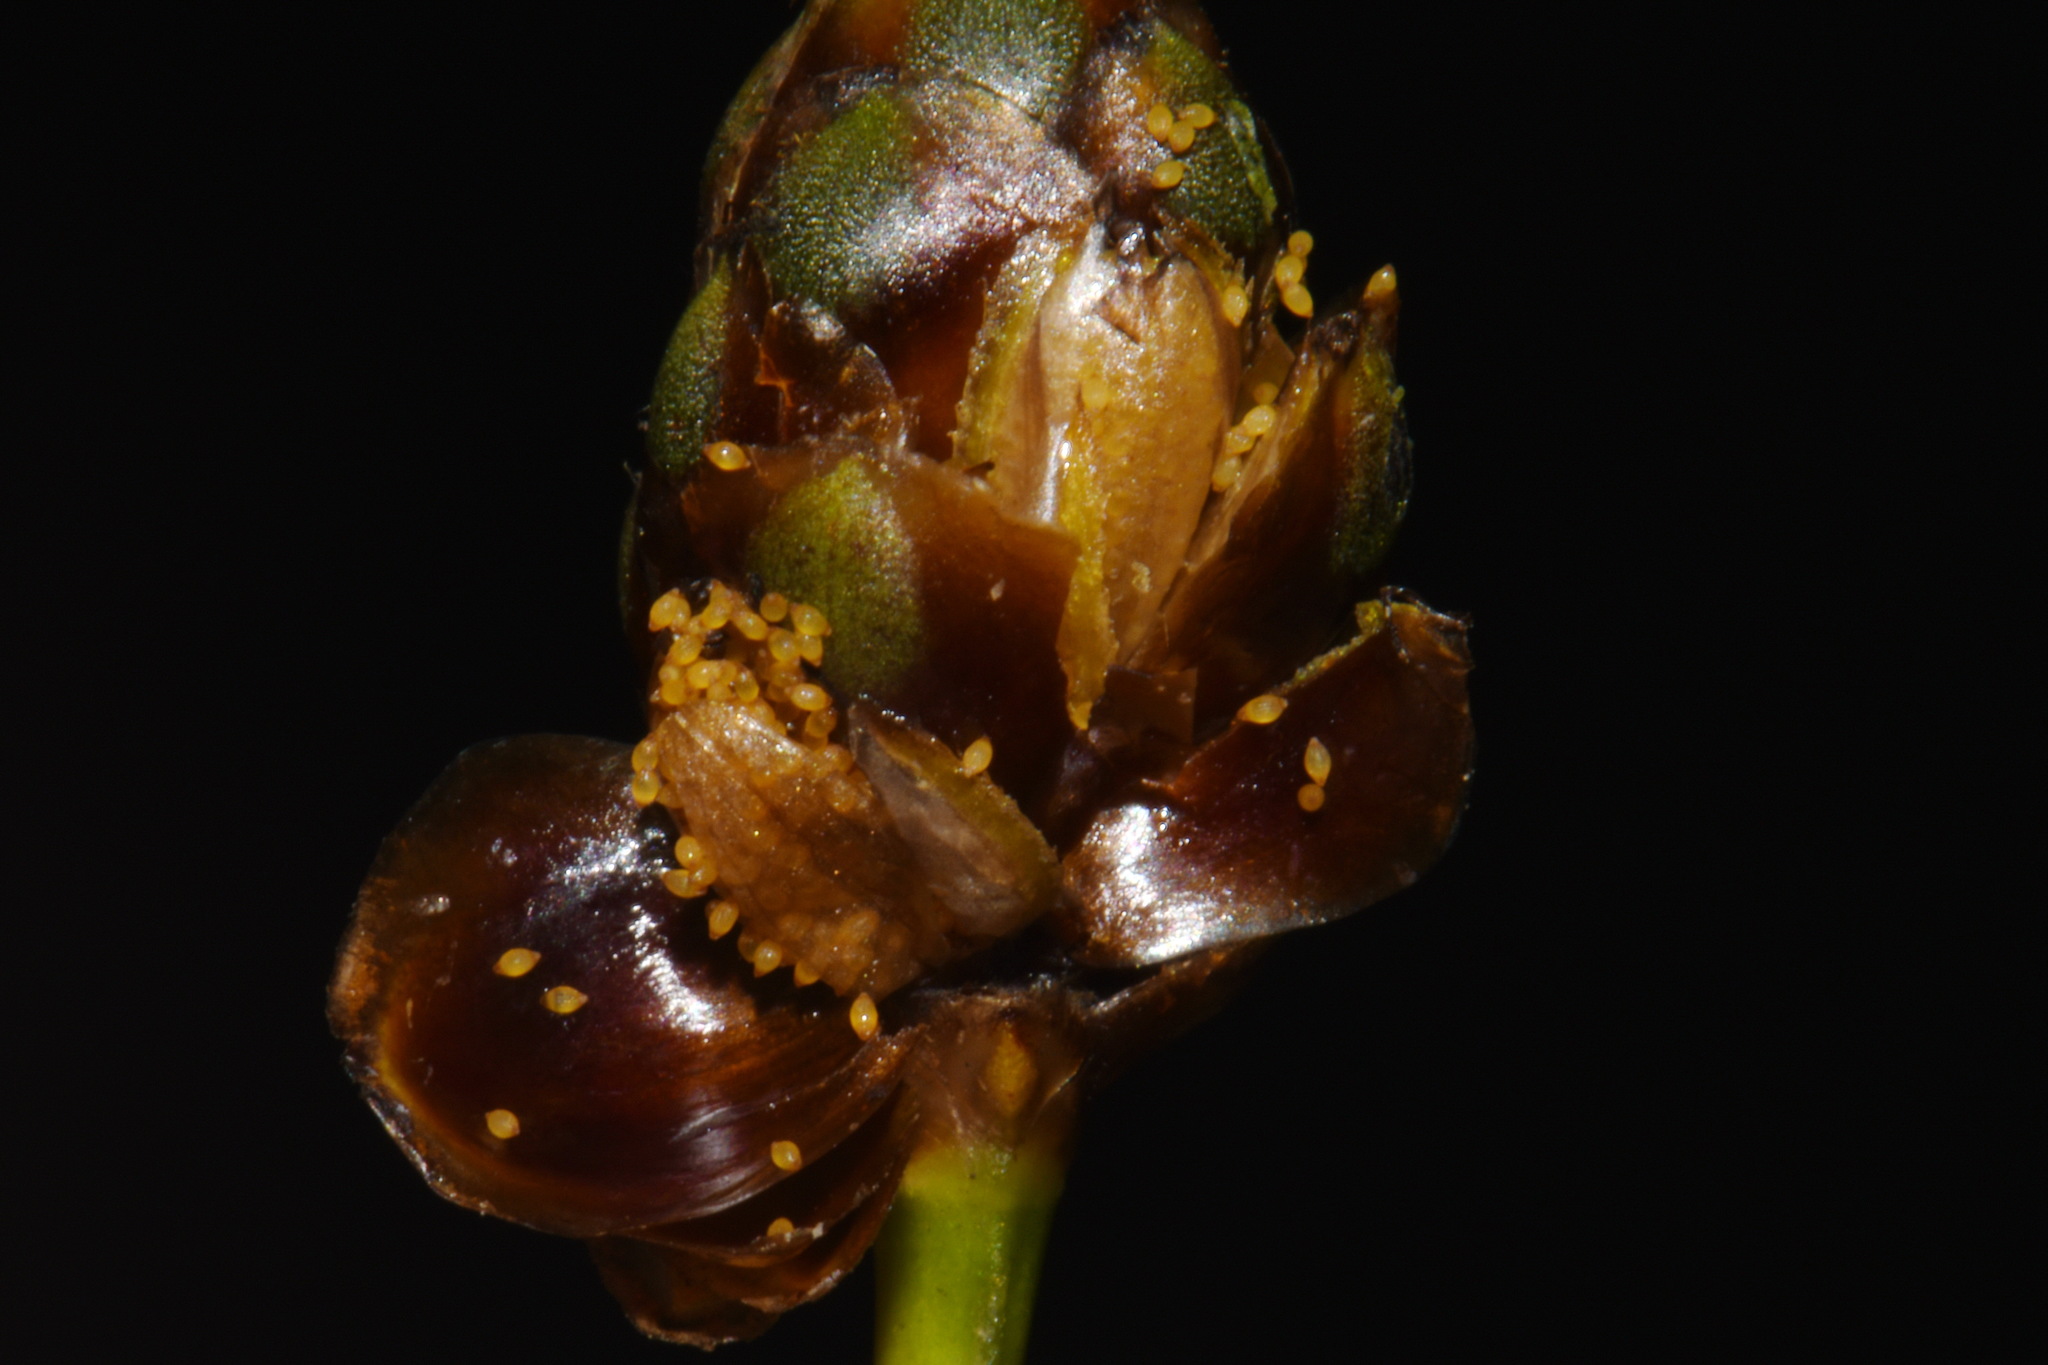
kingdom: Plantae
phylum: Tracheophyta
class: Liliopsida
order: Poales
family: Xyridaceae
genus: Xyris
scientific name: Xyris difformis
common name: Bog yellow-eyed-grass
